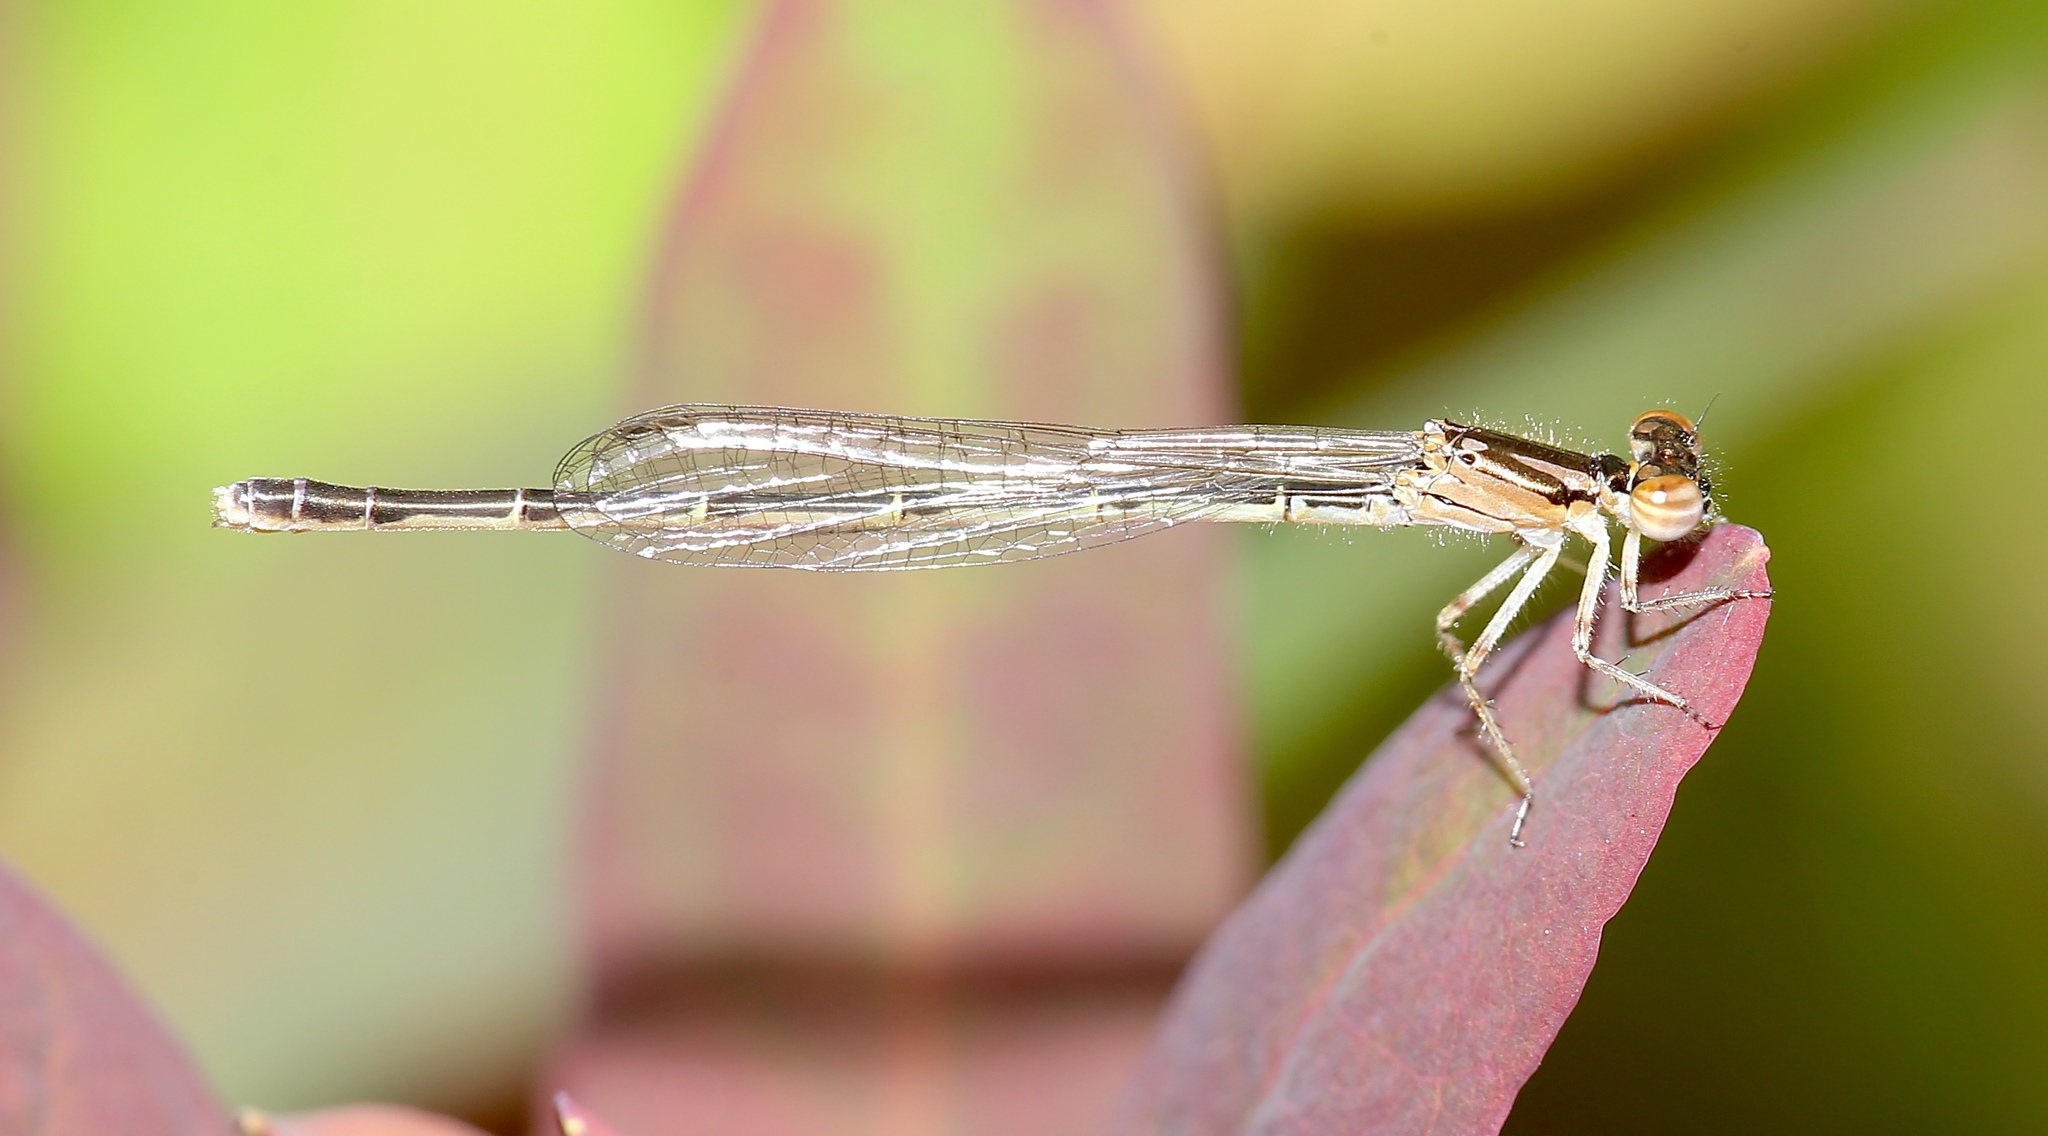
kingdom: Animalia
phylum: Arthropoda
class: Insecta
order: Odonata
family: Coenagrionidae
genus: Ischnura
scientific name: Ischnura posita
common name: Fragile forktail
